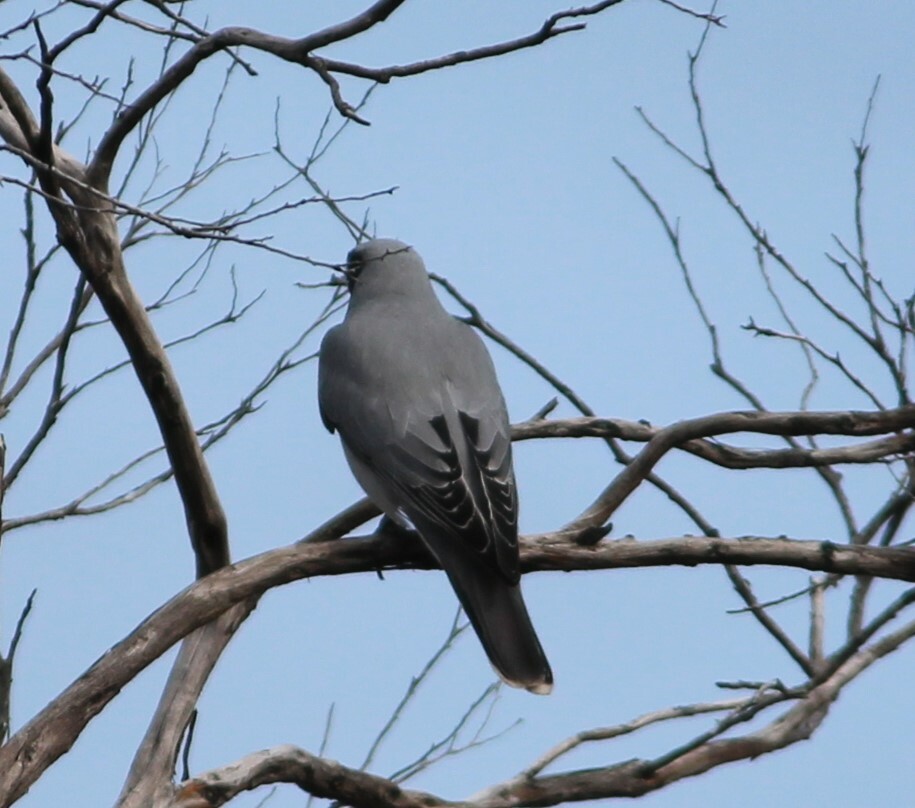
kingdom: Animalia
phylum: Chordata
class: Aves
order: Passeriformes
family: Campephagidae
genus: Coracina
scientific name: Coracina novaehollandiae
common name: Black-faced cuckooshrike
